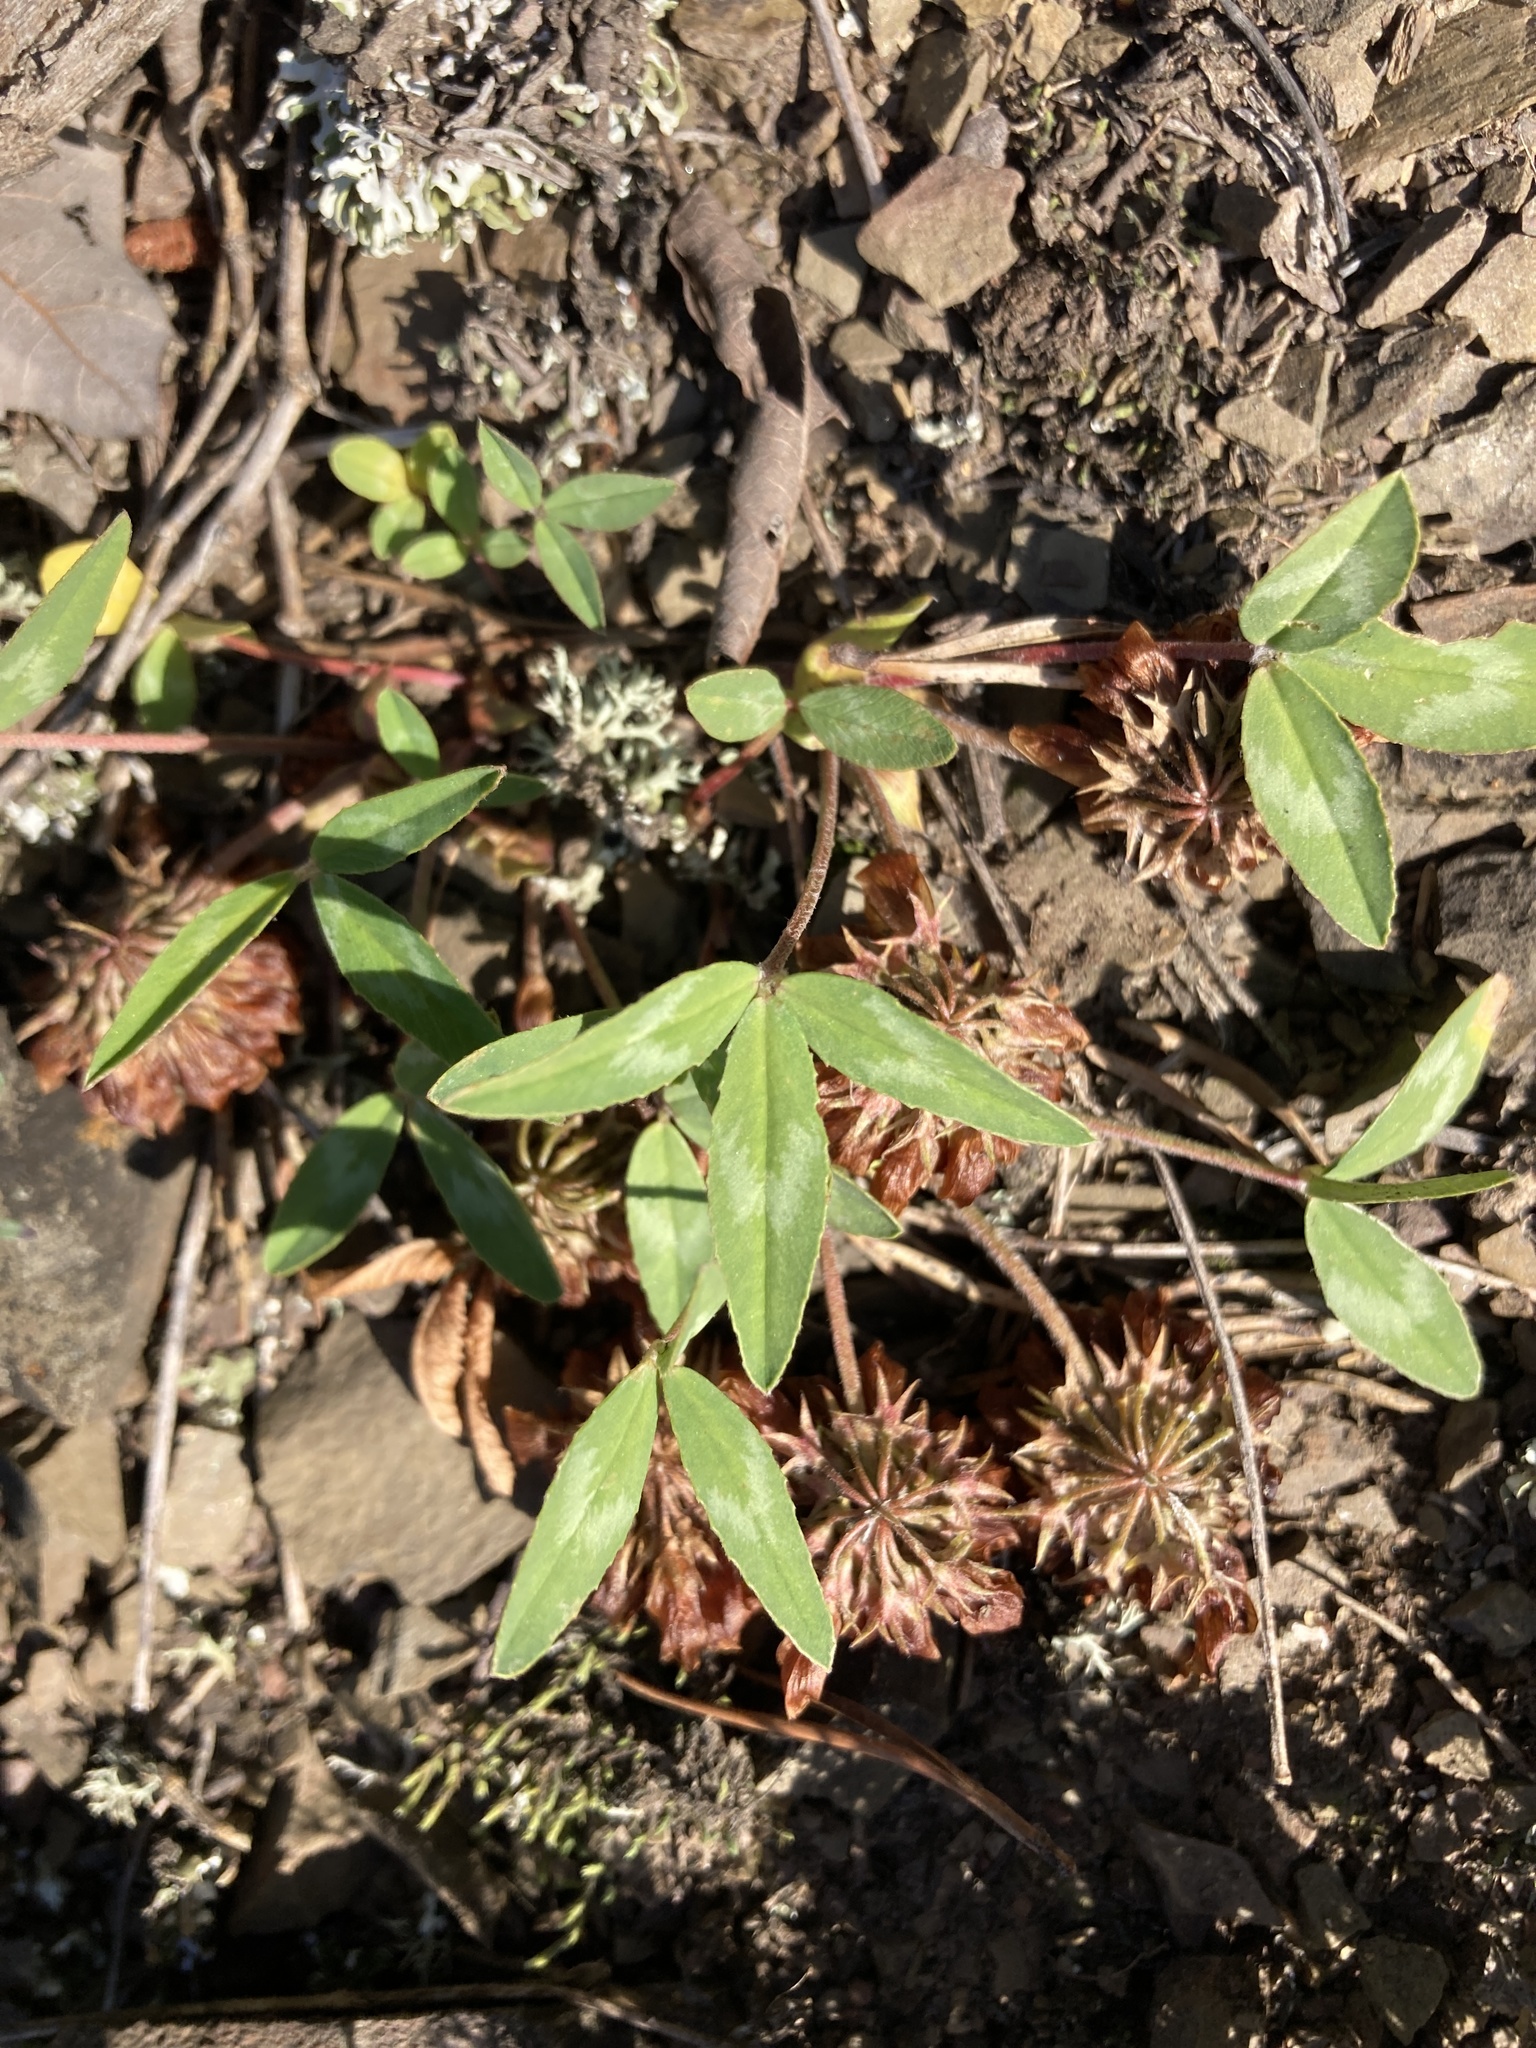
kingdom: Plantae
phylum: Tracheophyta
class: Magnoliopsida
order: Fabales
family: Fabaceae
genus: Trifolium
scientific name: Trifolium virginicum
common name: Kate's mountain clover
